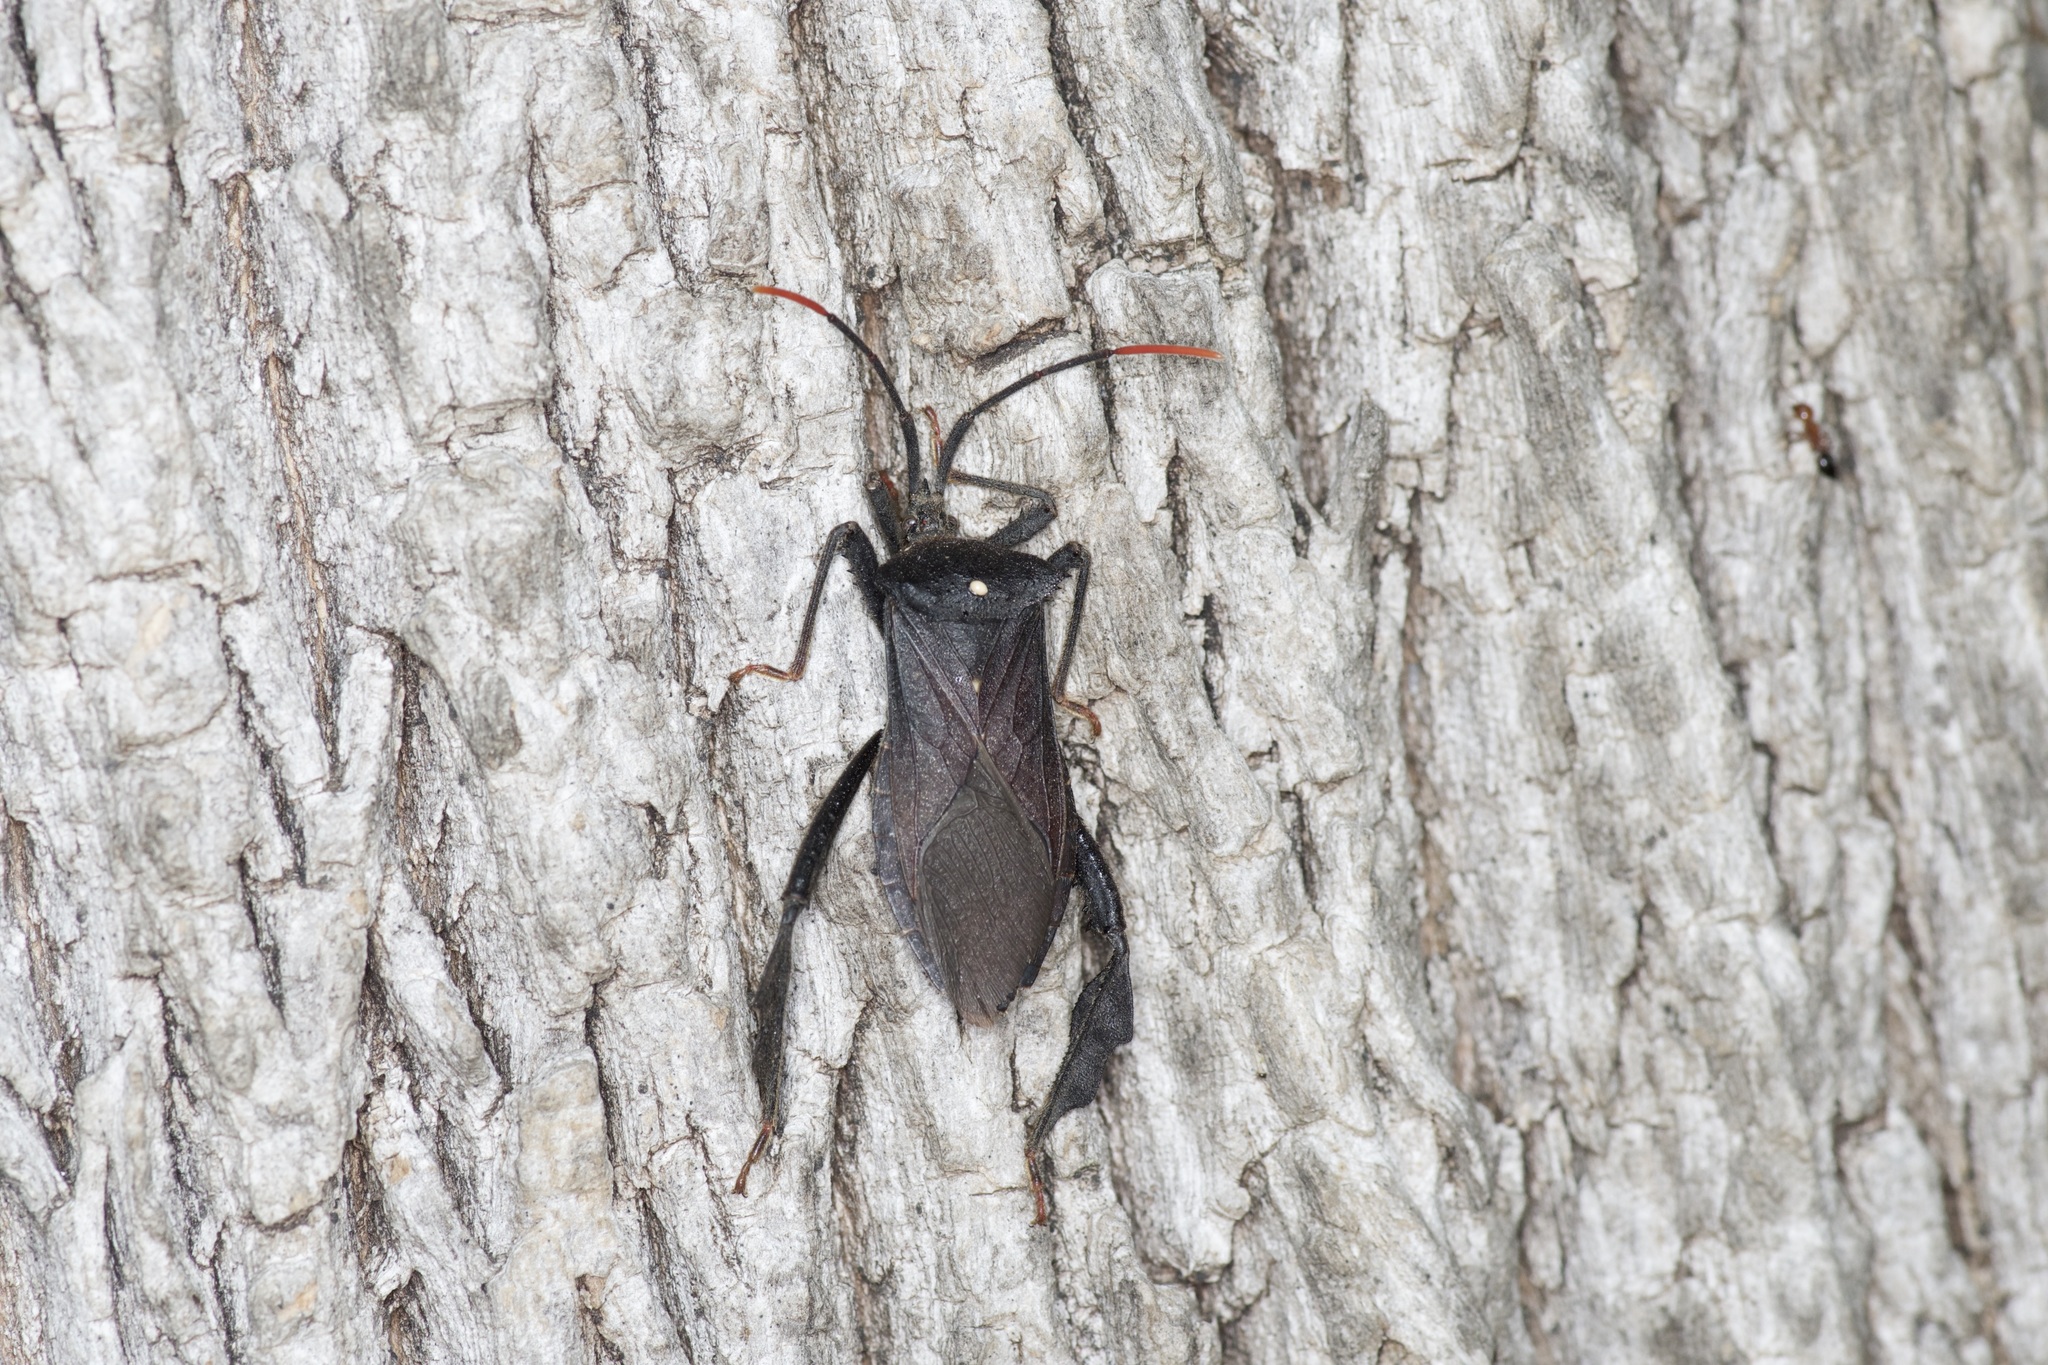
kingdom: Animalia
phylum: Arthropoda
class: Insecta
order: Hemiptera
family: Coreidae
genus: Acanthocephala
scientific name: Acanthocephala terminalis
